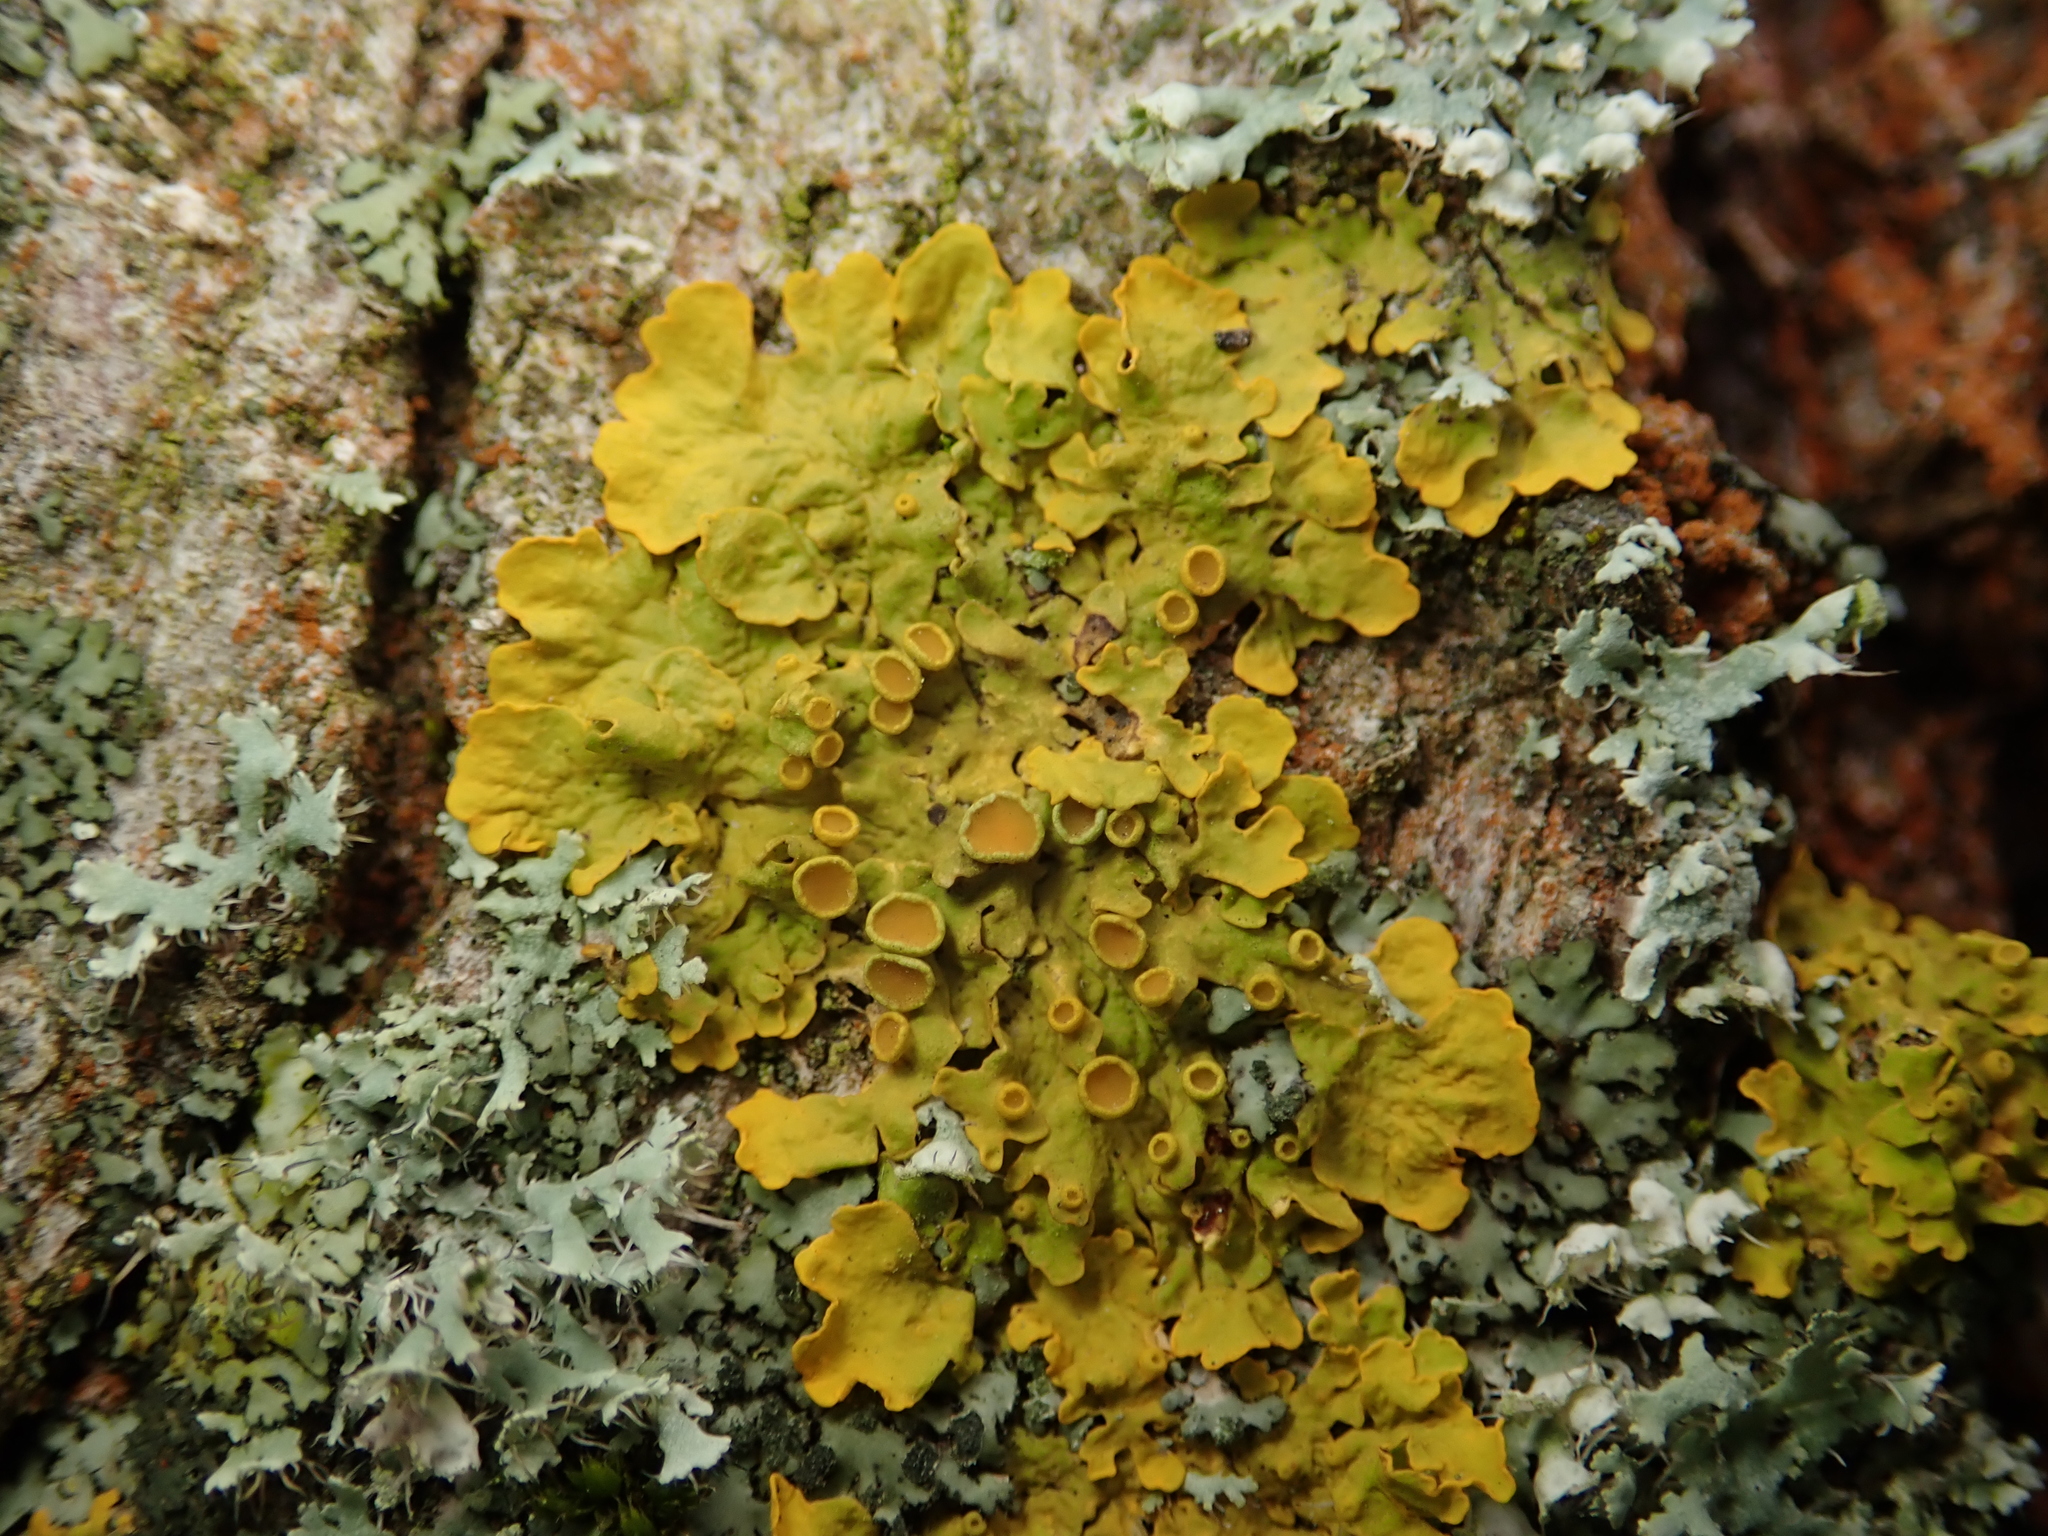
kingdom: Fungi
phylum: Ascomycota
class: Lecanoromycetes
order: Teloschistales
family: Teloschistaceae
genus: Xanthoria
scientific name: Xanthoria parietina
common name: Common orange lichen
